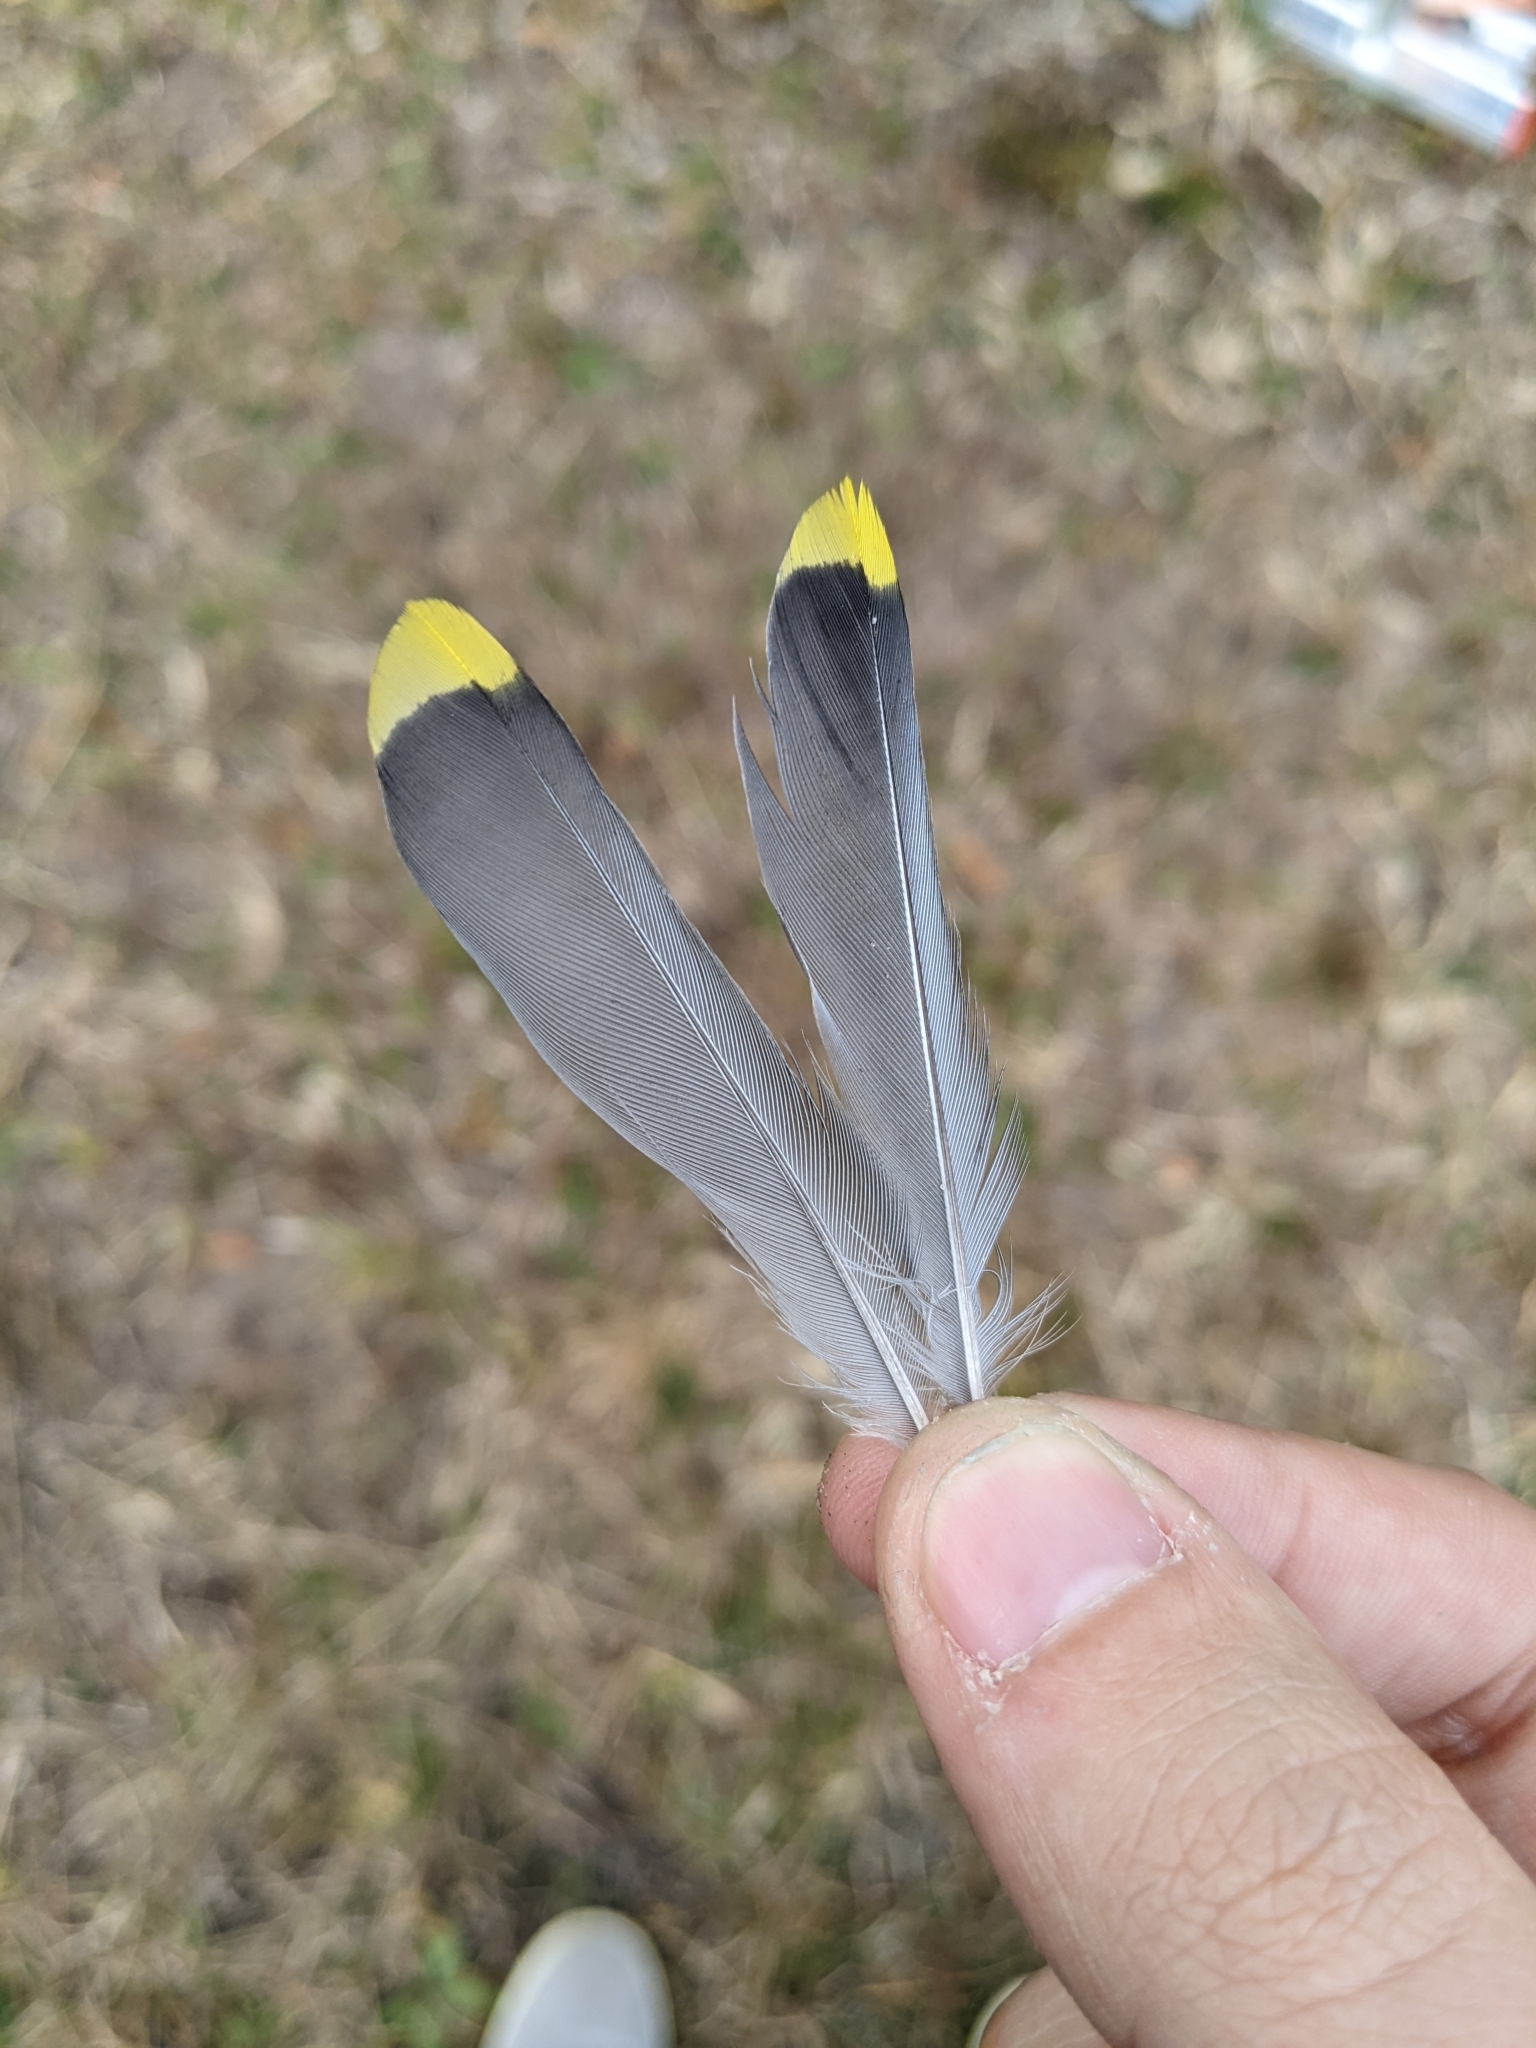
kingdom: Animalia
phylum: Chordata
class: Aves
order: Passeriformes
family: Bombycillidae
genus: Bombycilla
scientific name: Bombycilla cedrorum
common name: Cedar waxwing
